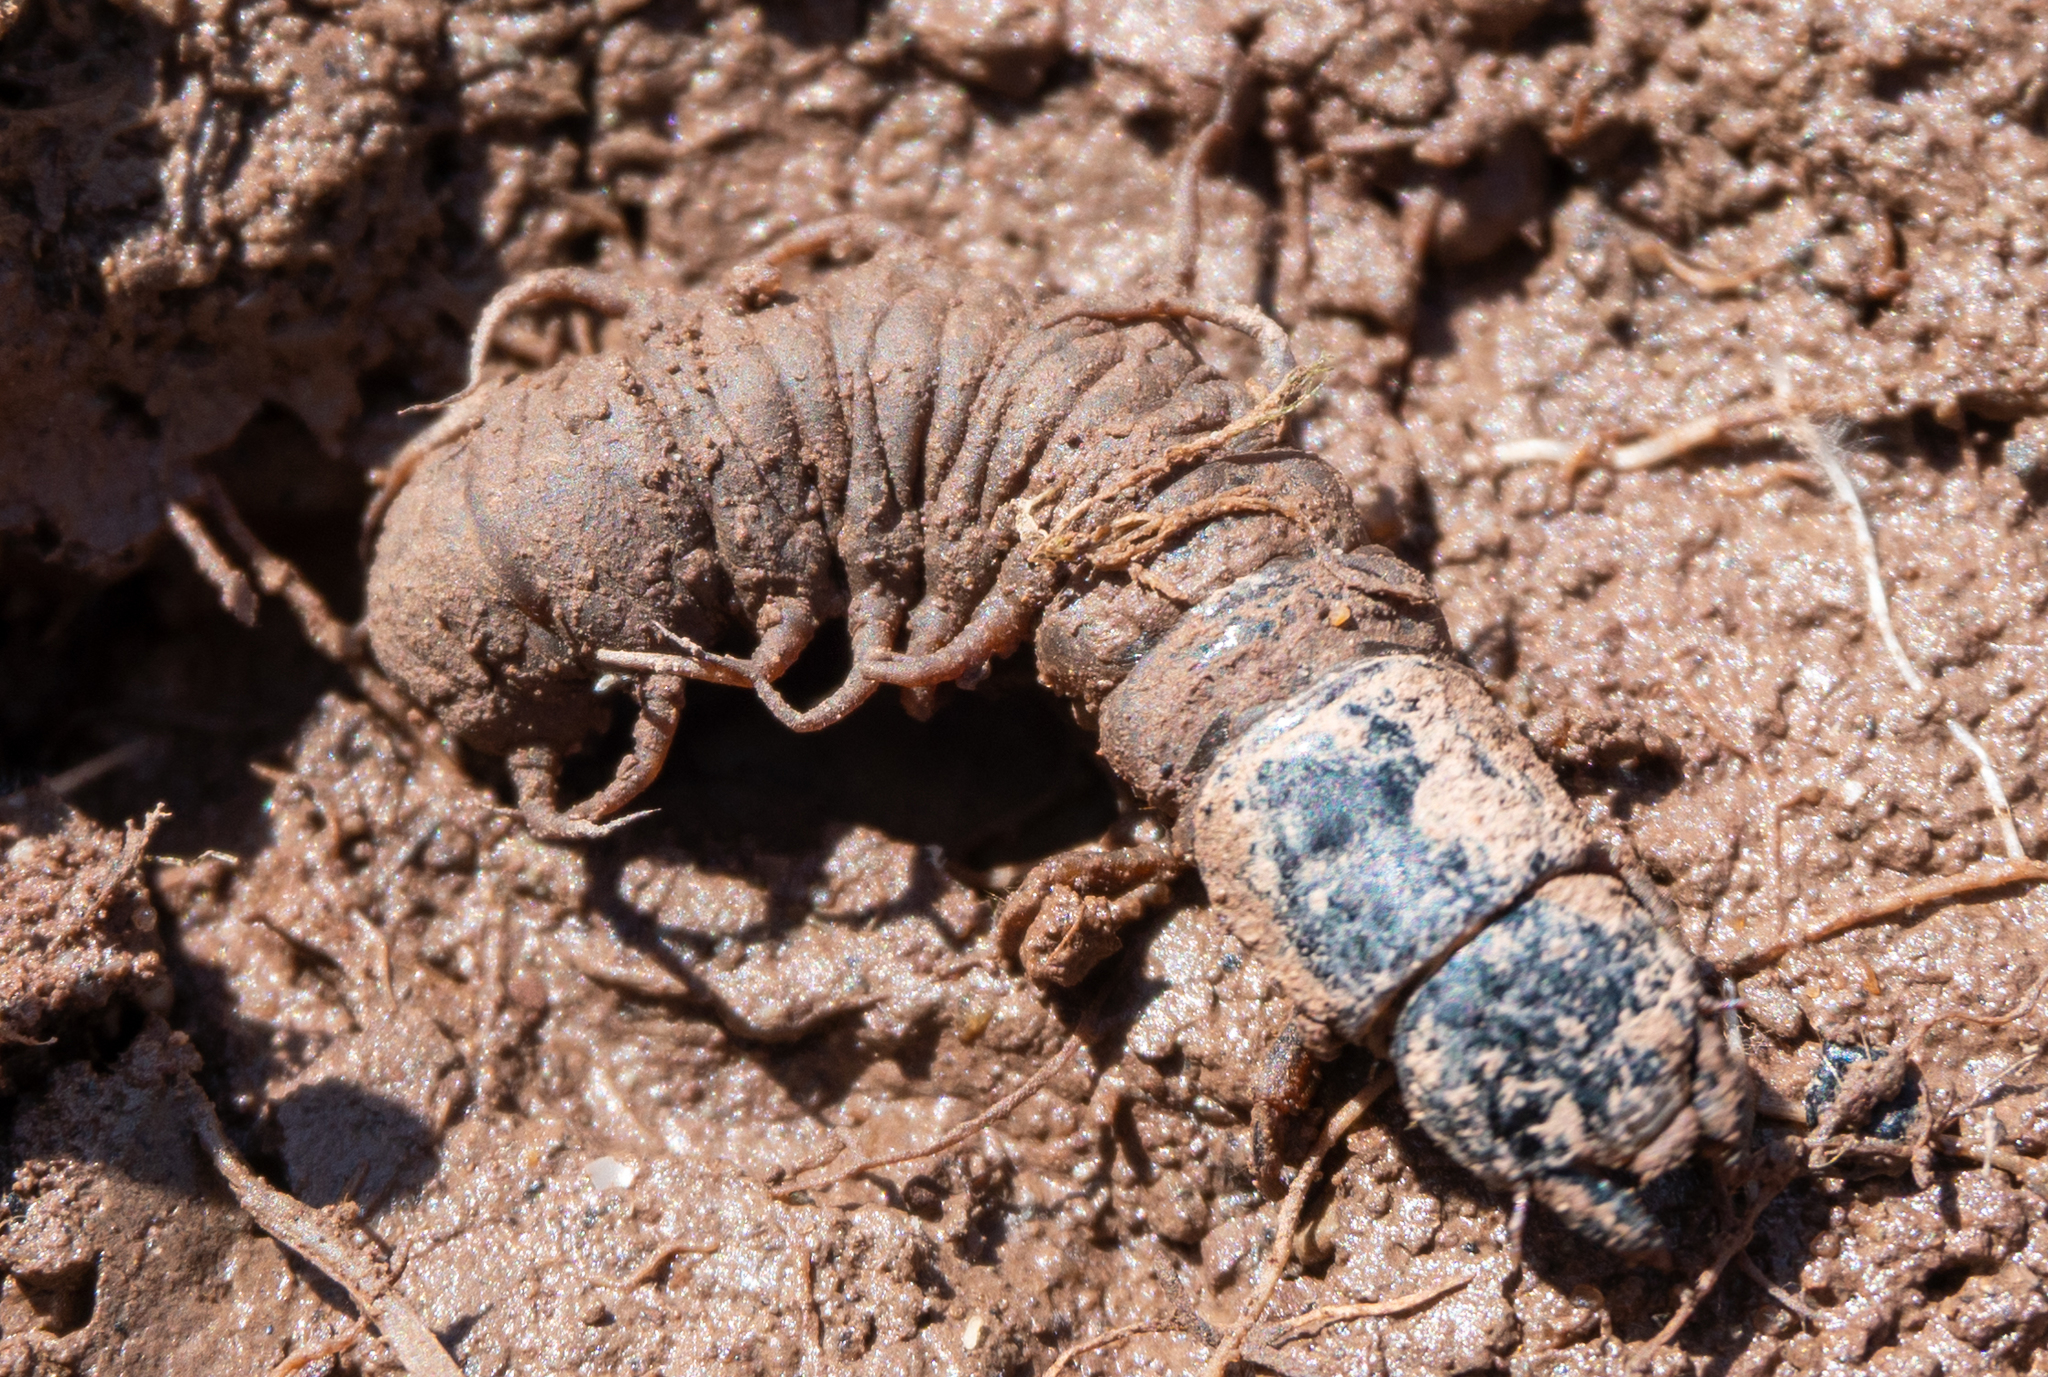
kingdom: Animalia
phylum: Arthropoda
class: Insecta
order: Megaloptera
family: Corydalidae
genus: Nigronia
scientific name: Nigronia serricornis
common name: Serrate dark fishfly
